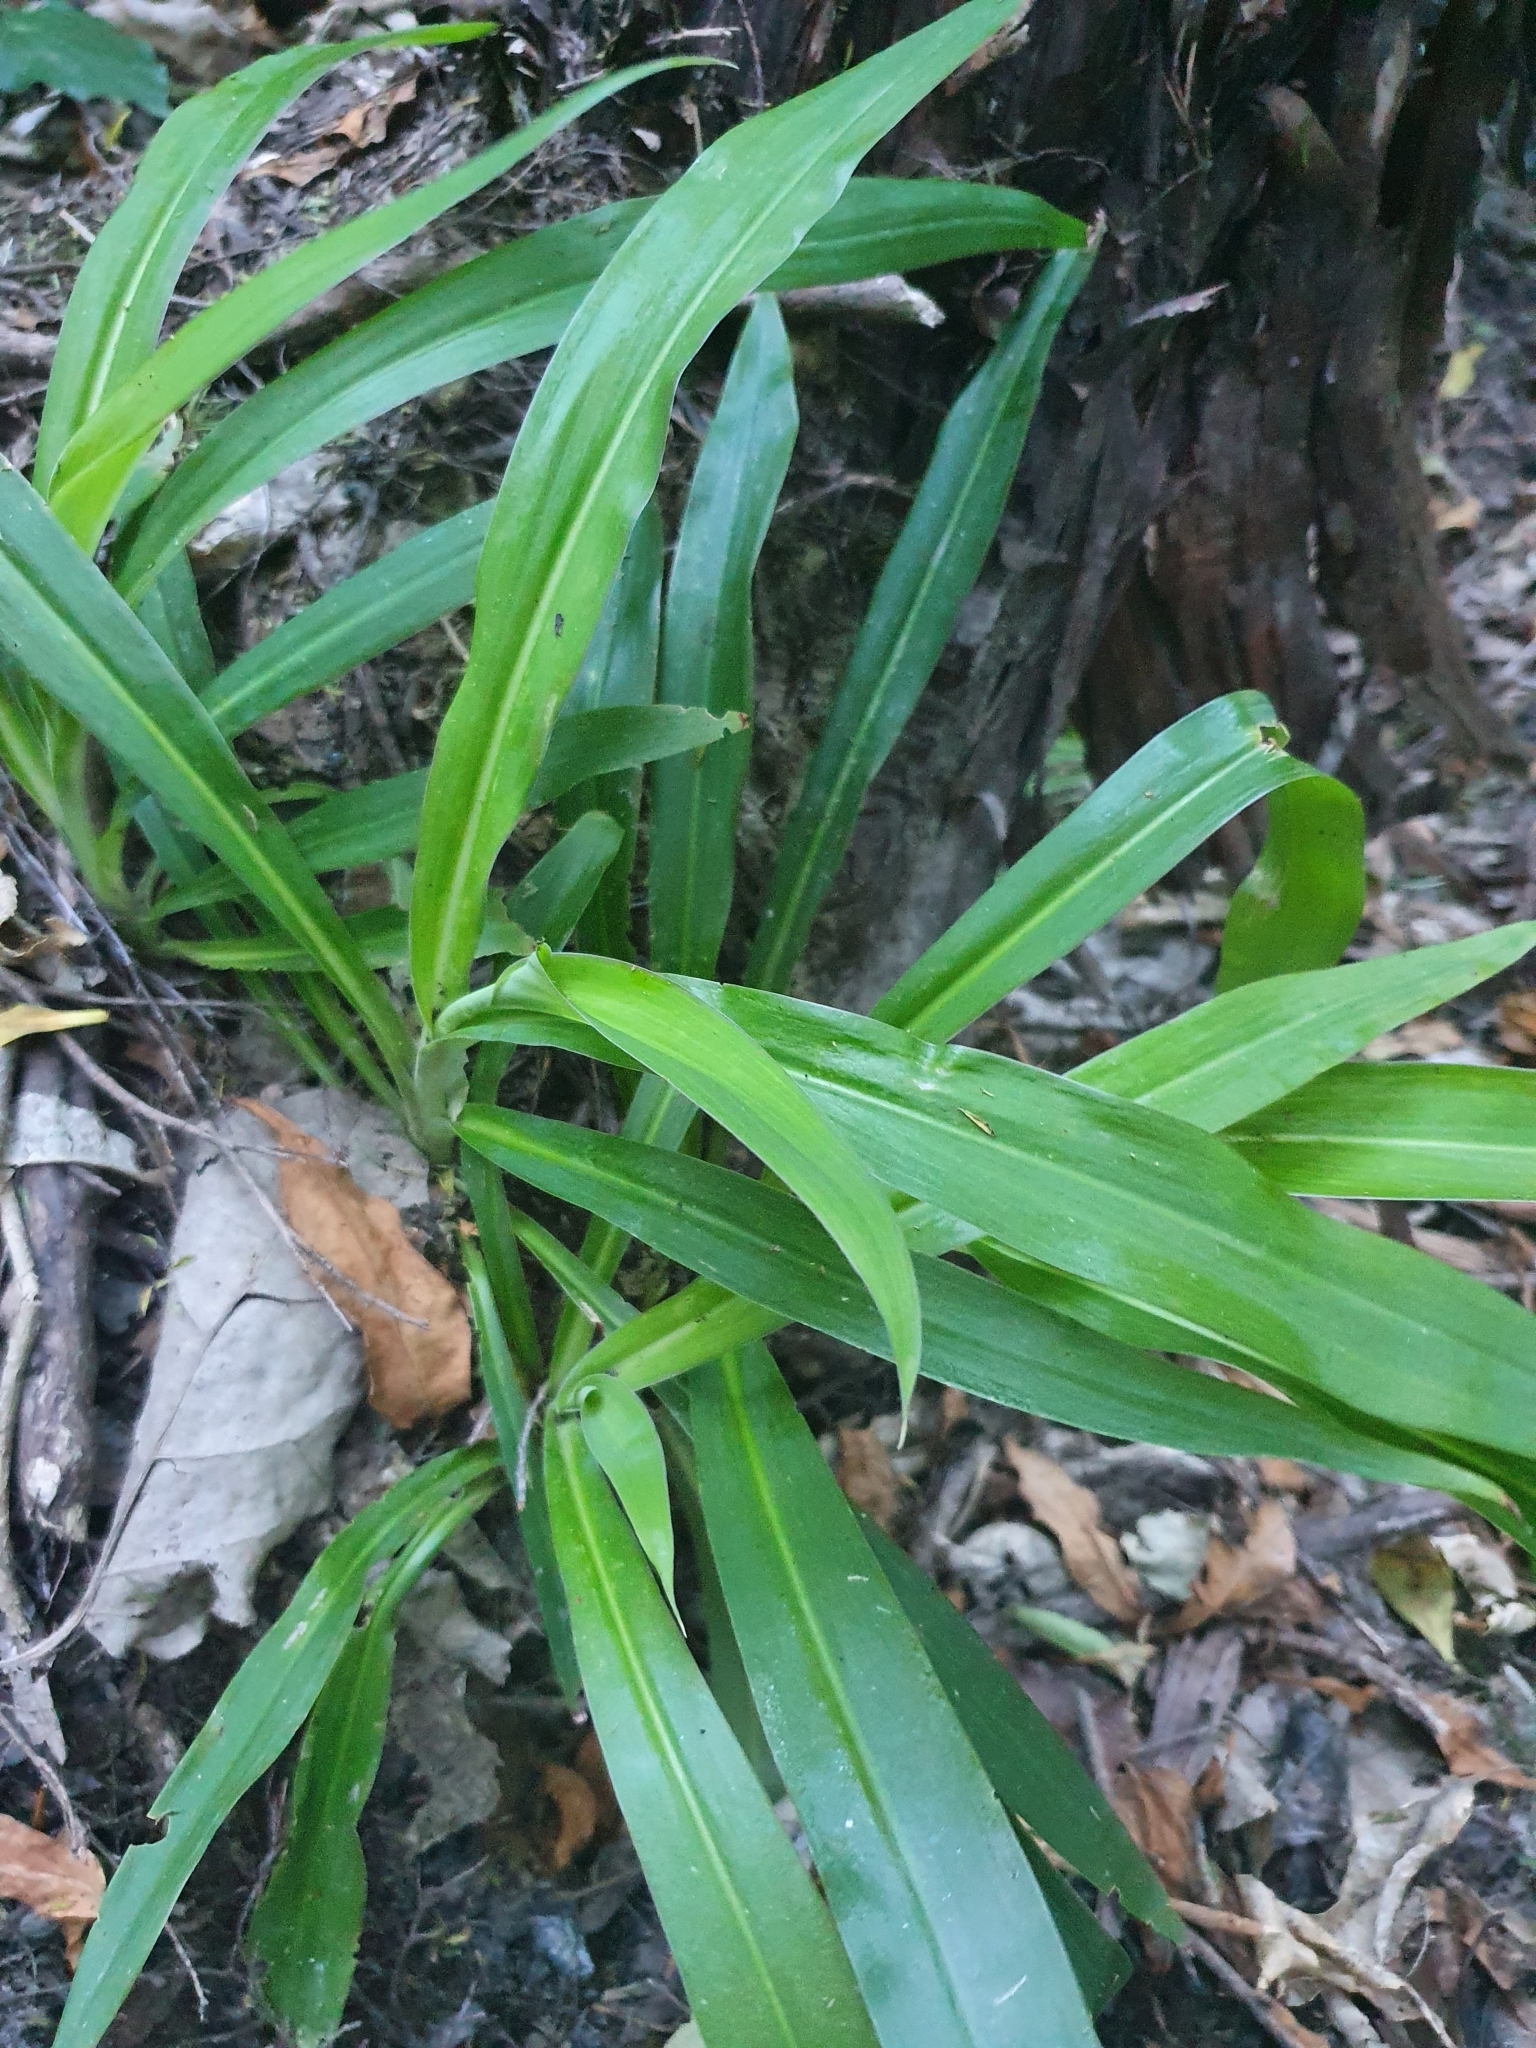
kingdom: Plantae
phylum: Tracheophyta
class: Liliopsida
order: Asparagales
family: Asparagaceae
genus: Arthropodium
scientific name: Arthropodium cirratum
